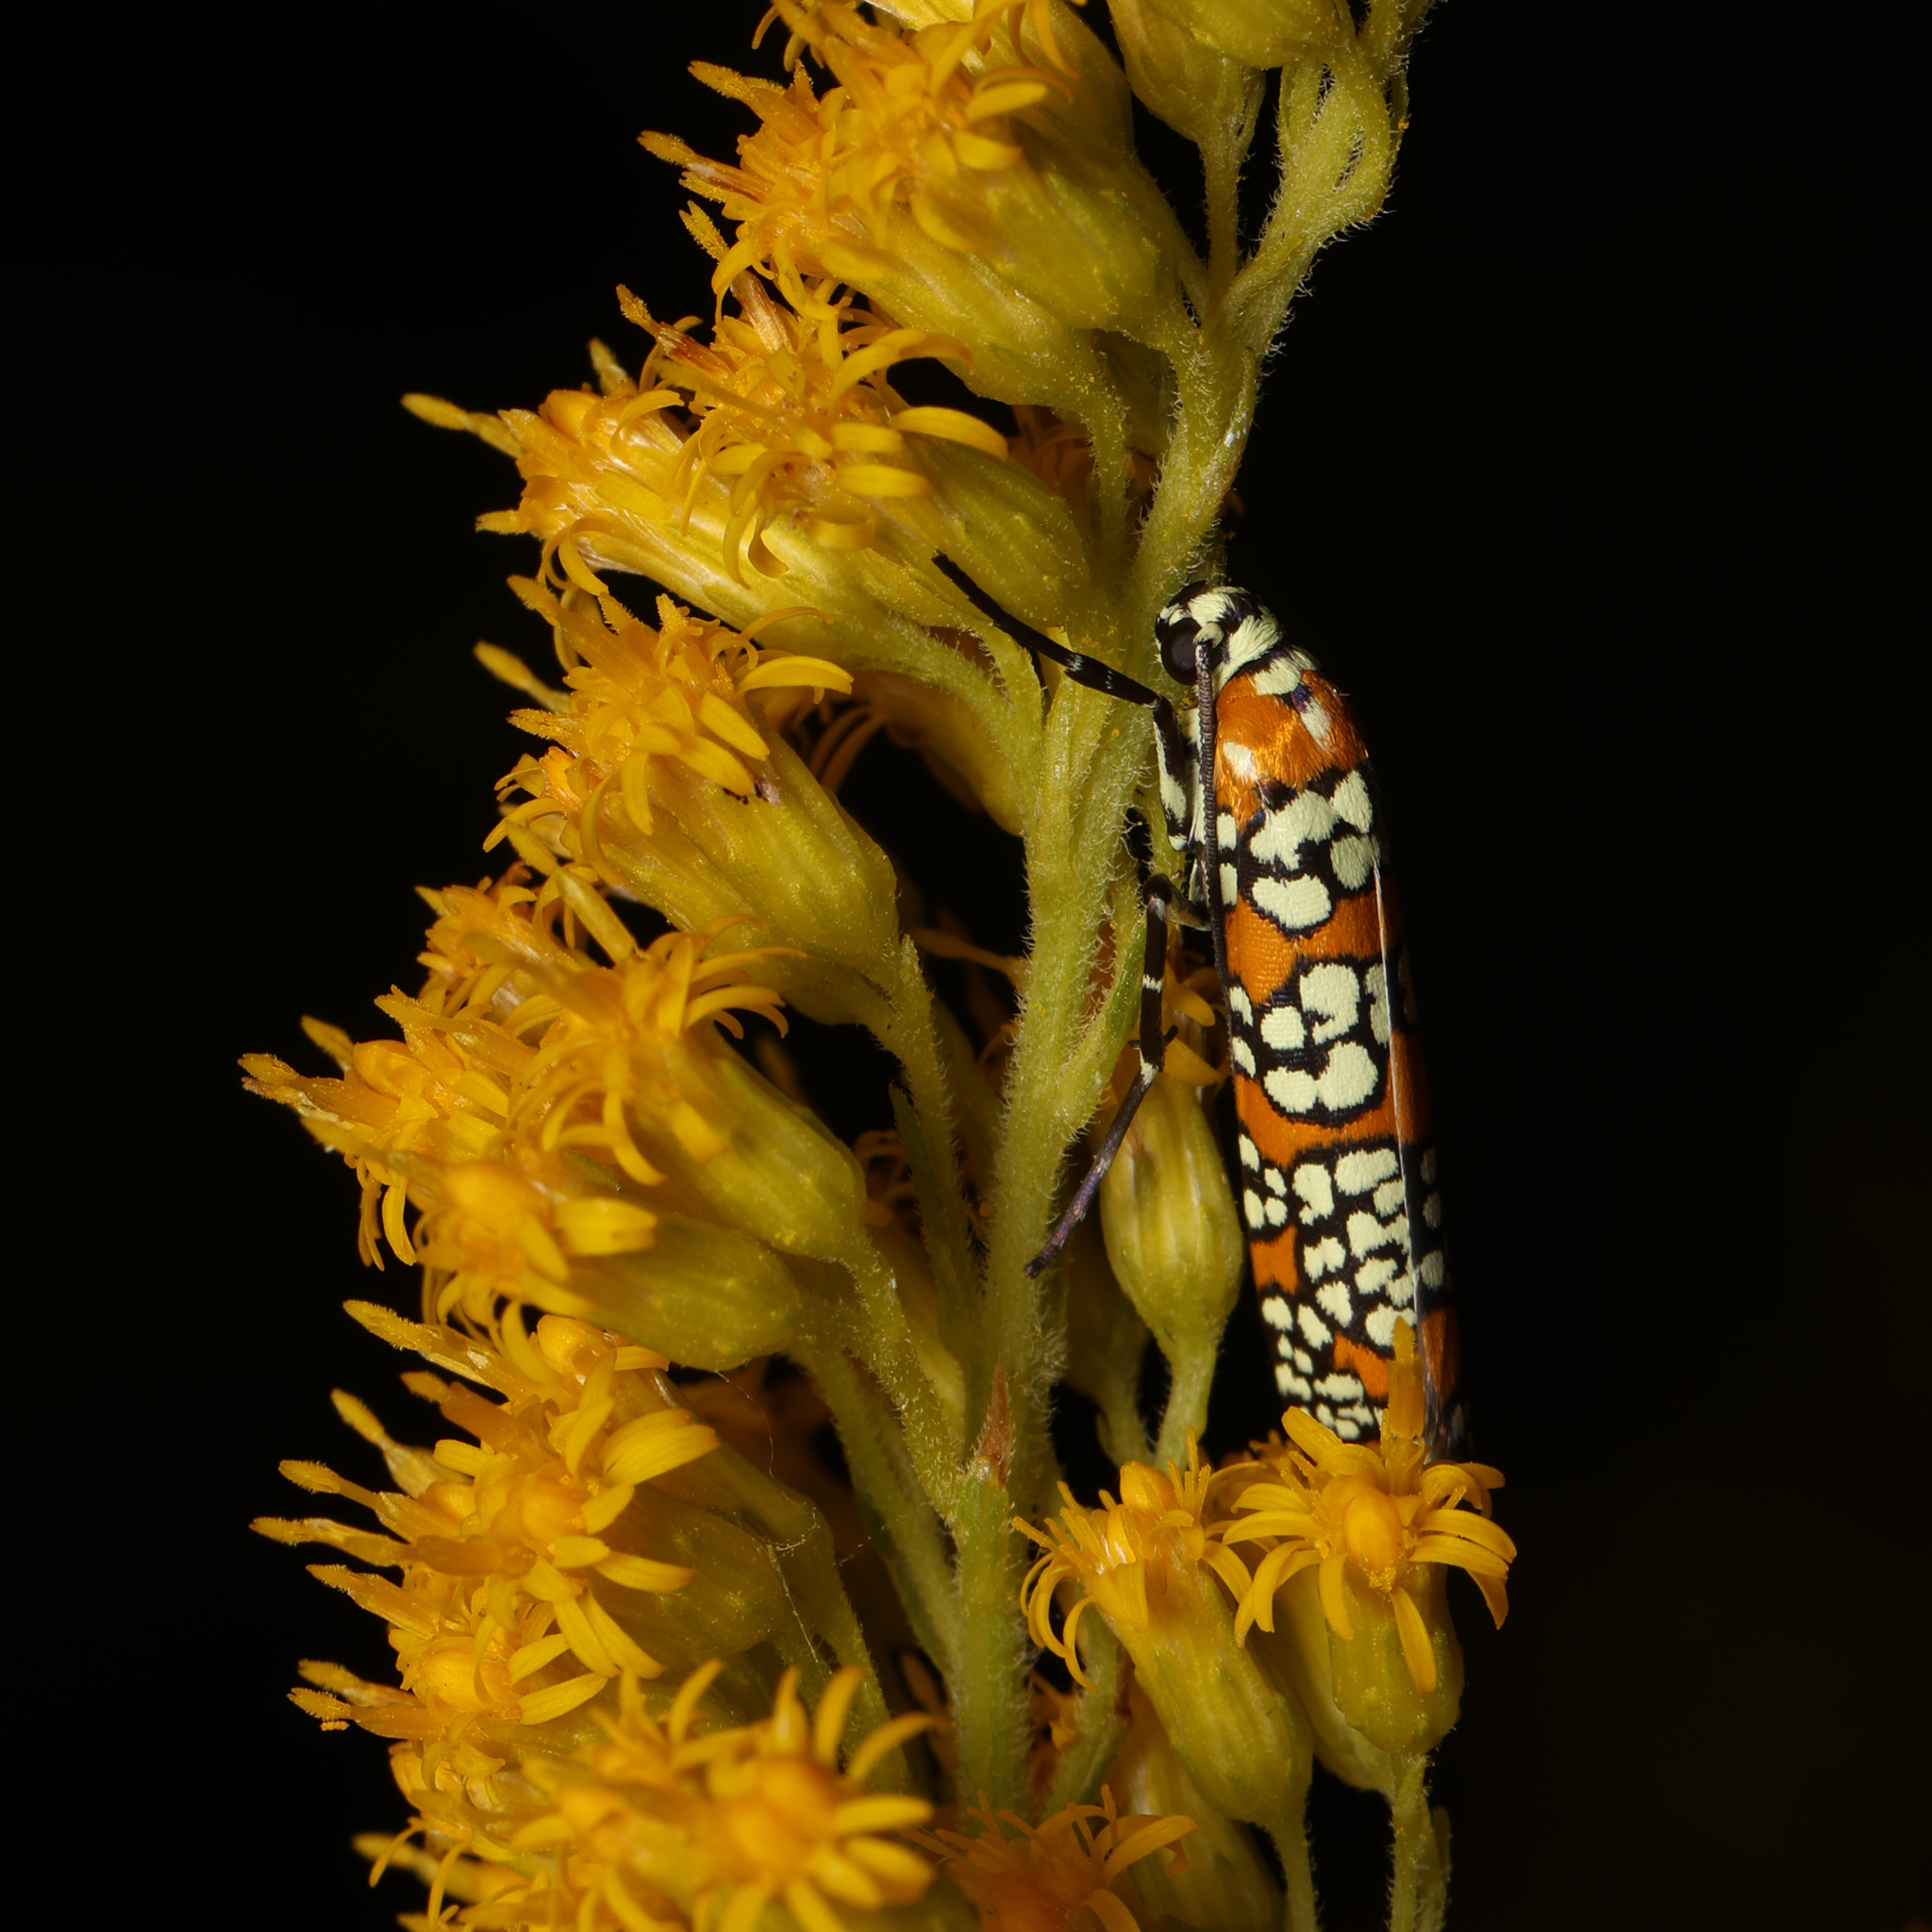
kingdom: Animalia
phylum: Arthropoda
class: Insecta
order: Lepidoptera
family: Attevidae
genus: Atteva
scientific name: Atteva punctella
